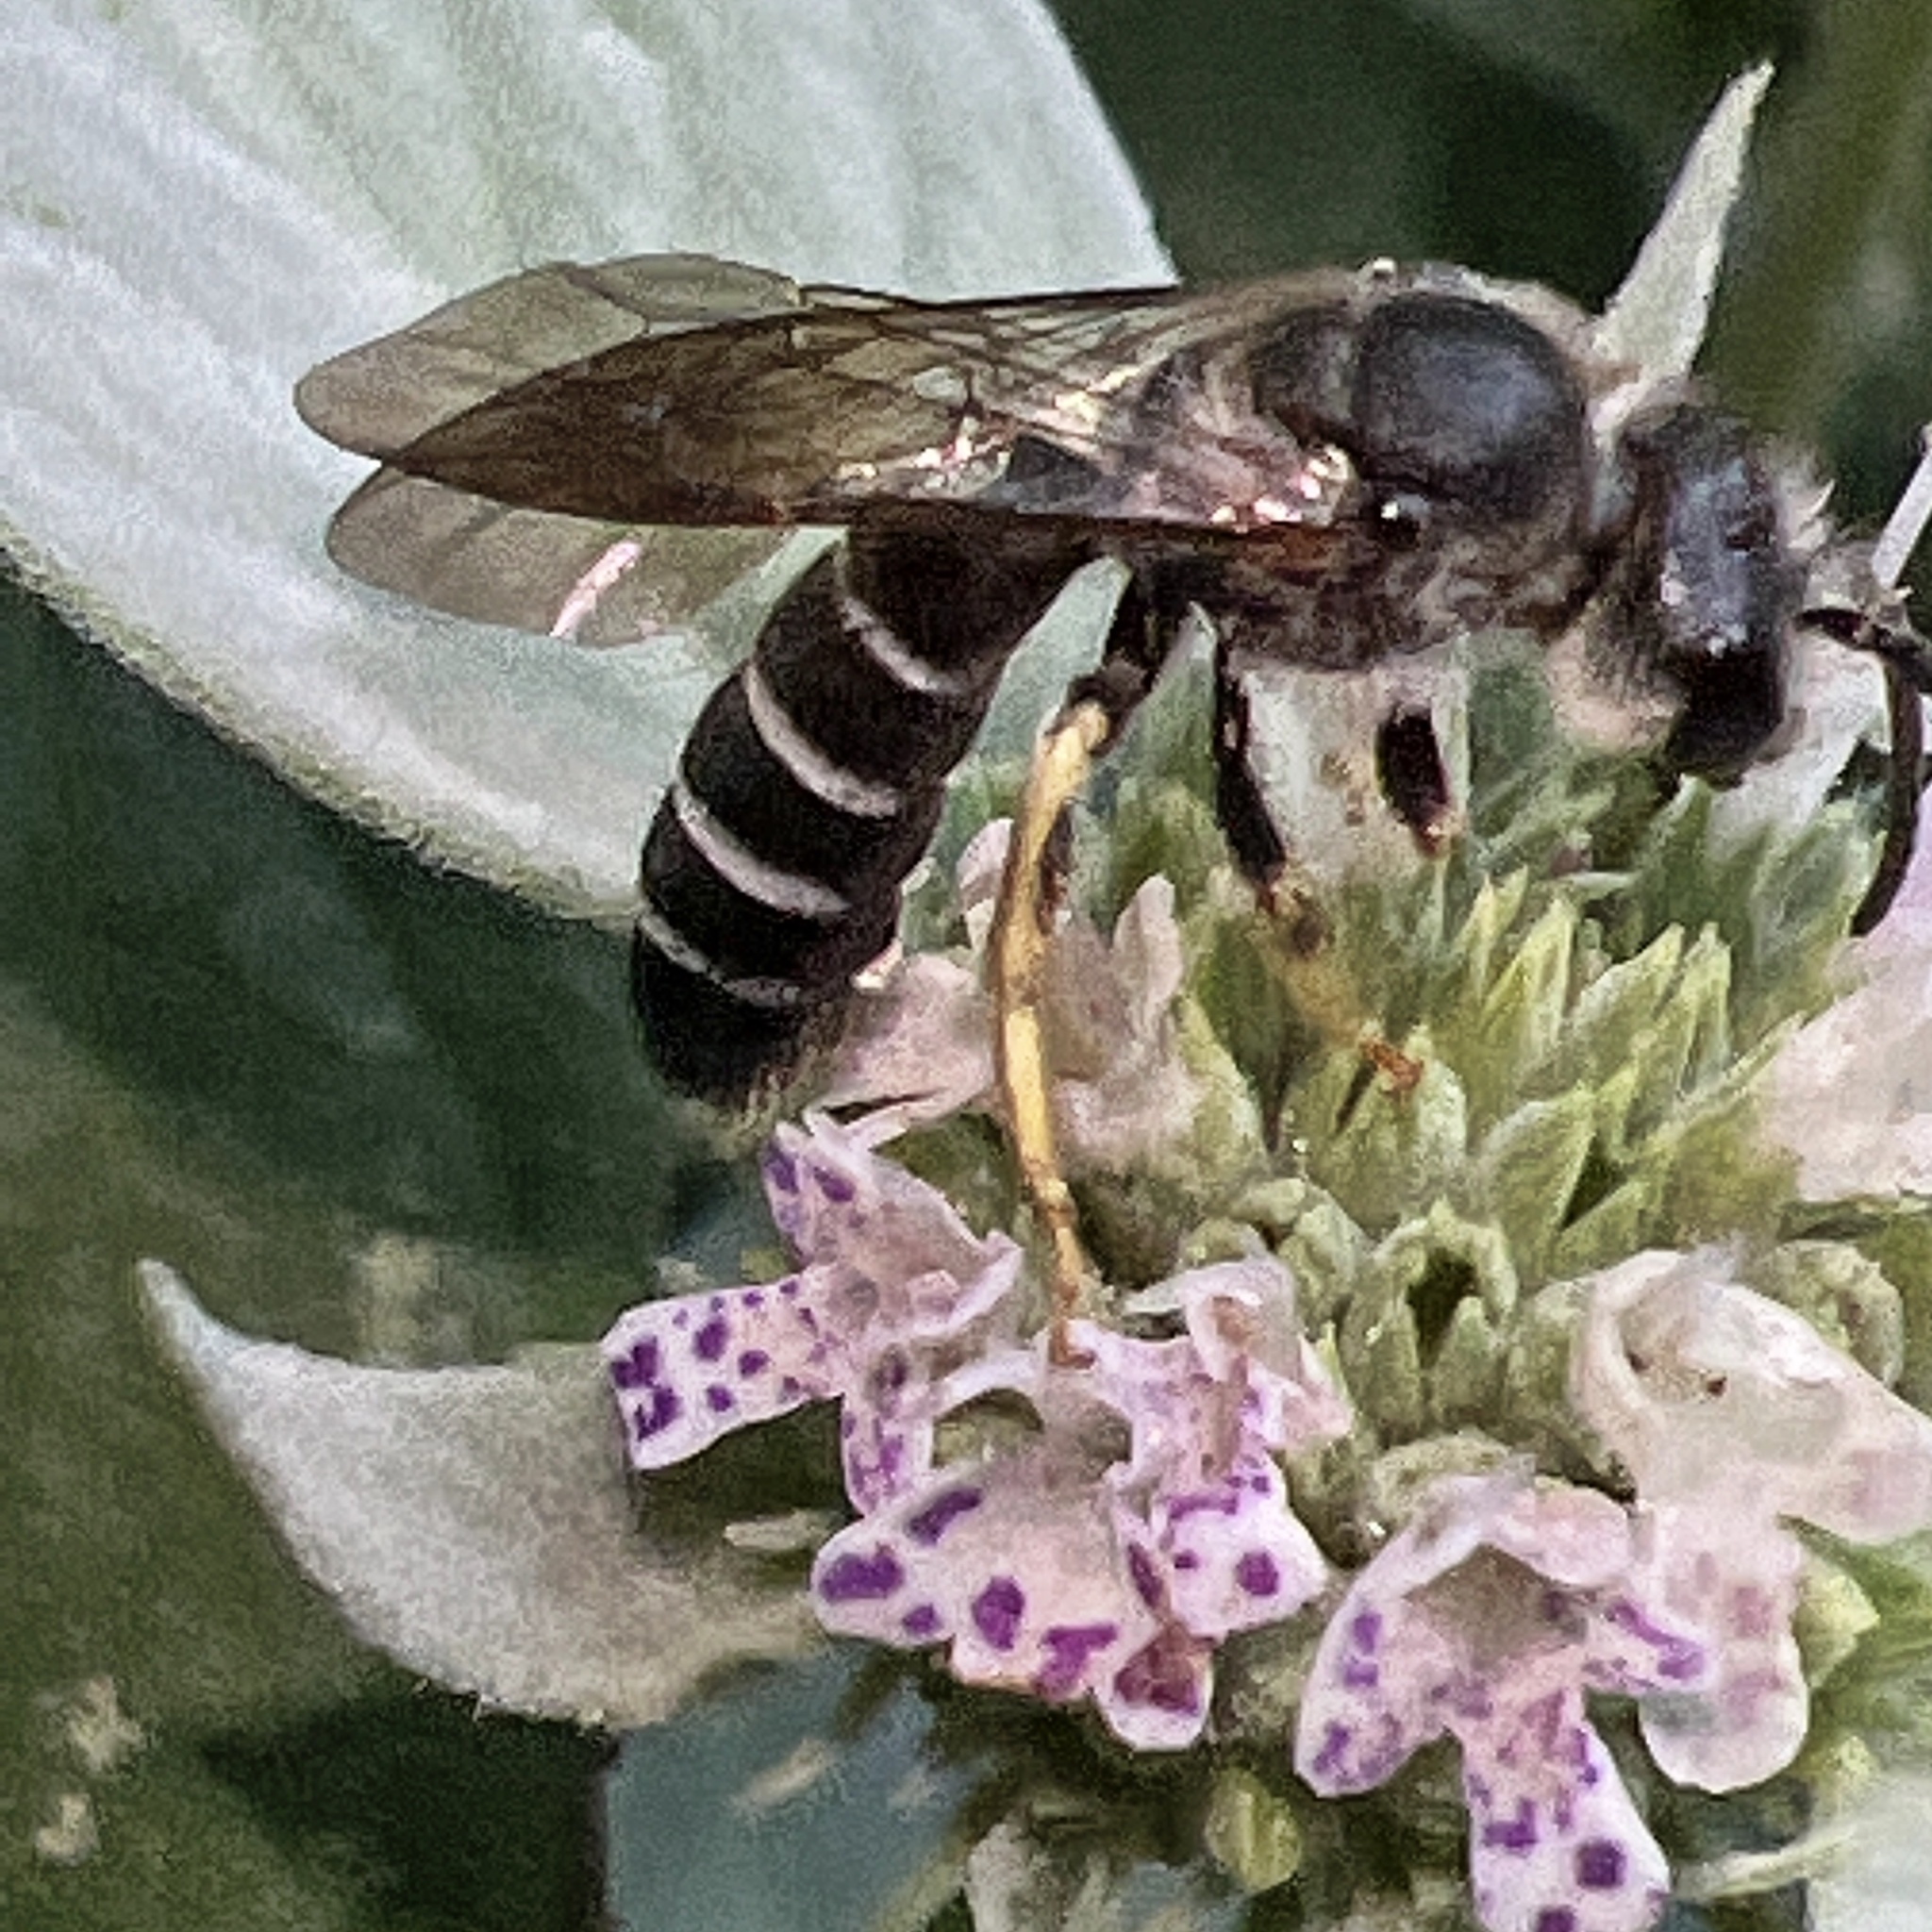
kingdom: Animalia
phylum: Arthropoda
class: Insecta
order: Hymenoptera
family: Halictidae
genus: Halictus
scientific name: Halictus rubicundus
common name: Orange-legged furrow bee
